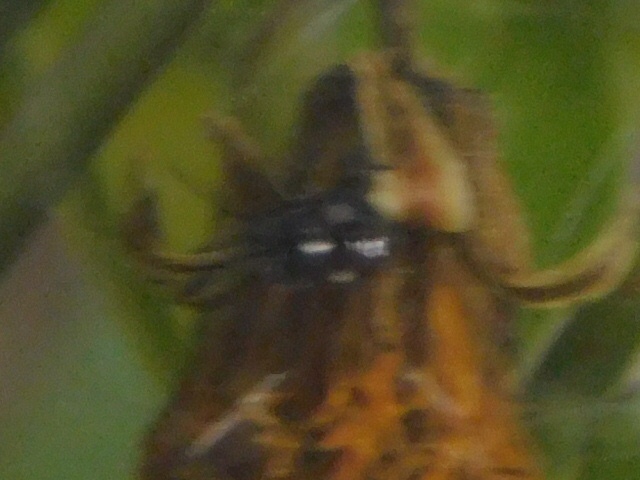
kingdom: Animalia
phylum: Arthropoda
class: Insecta
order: Hemiptera
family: Pentatomidae
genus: Thyanta
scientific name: Thyanta perditor
